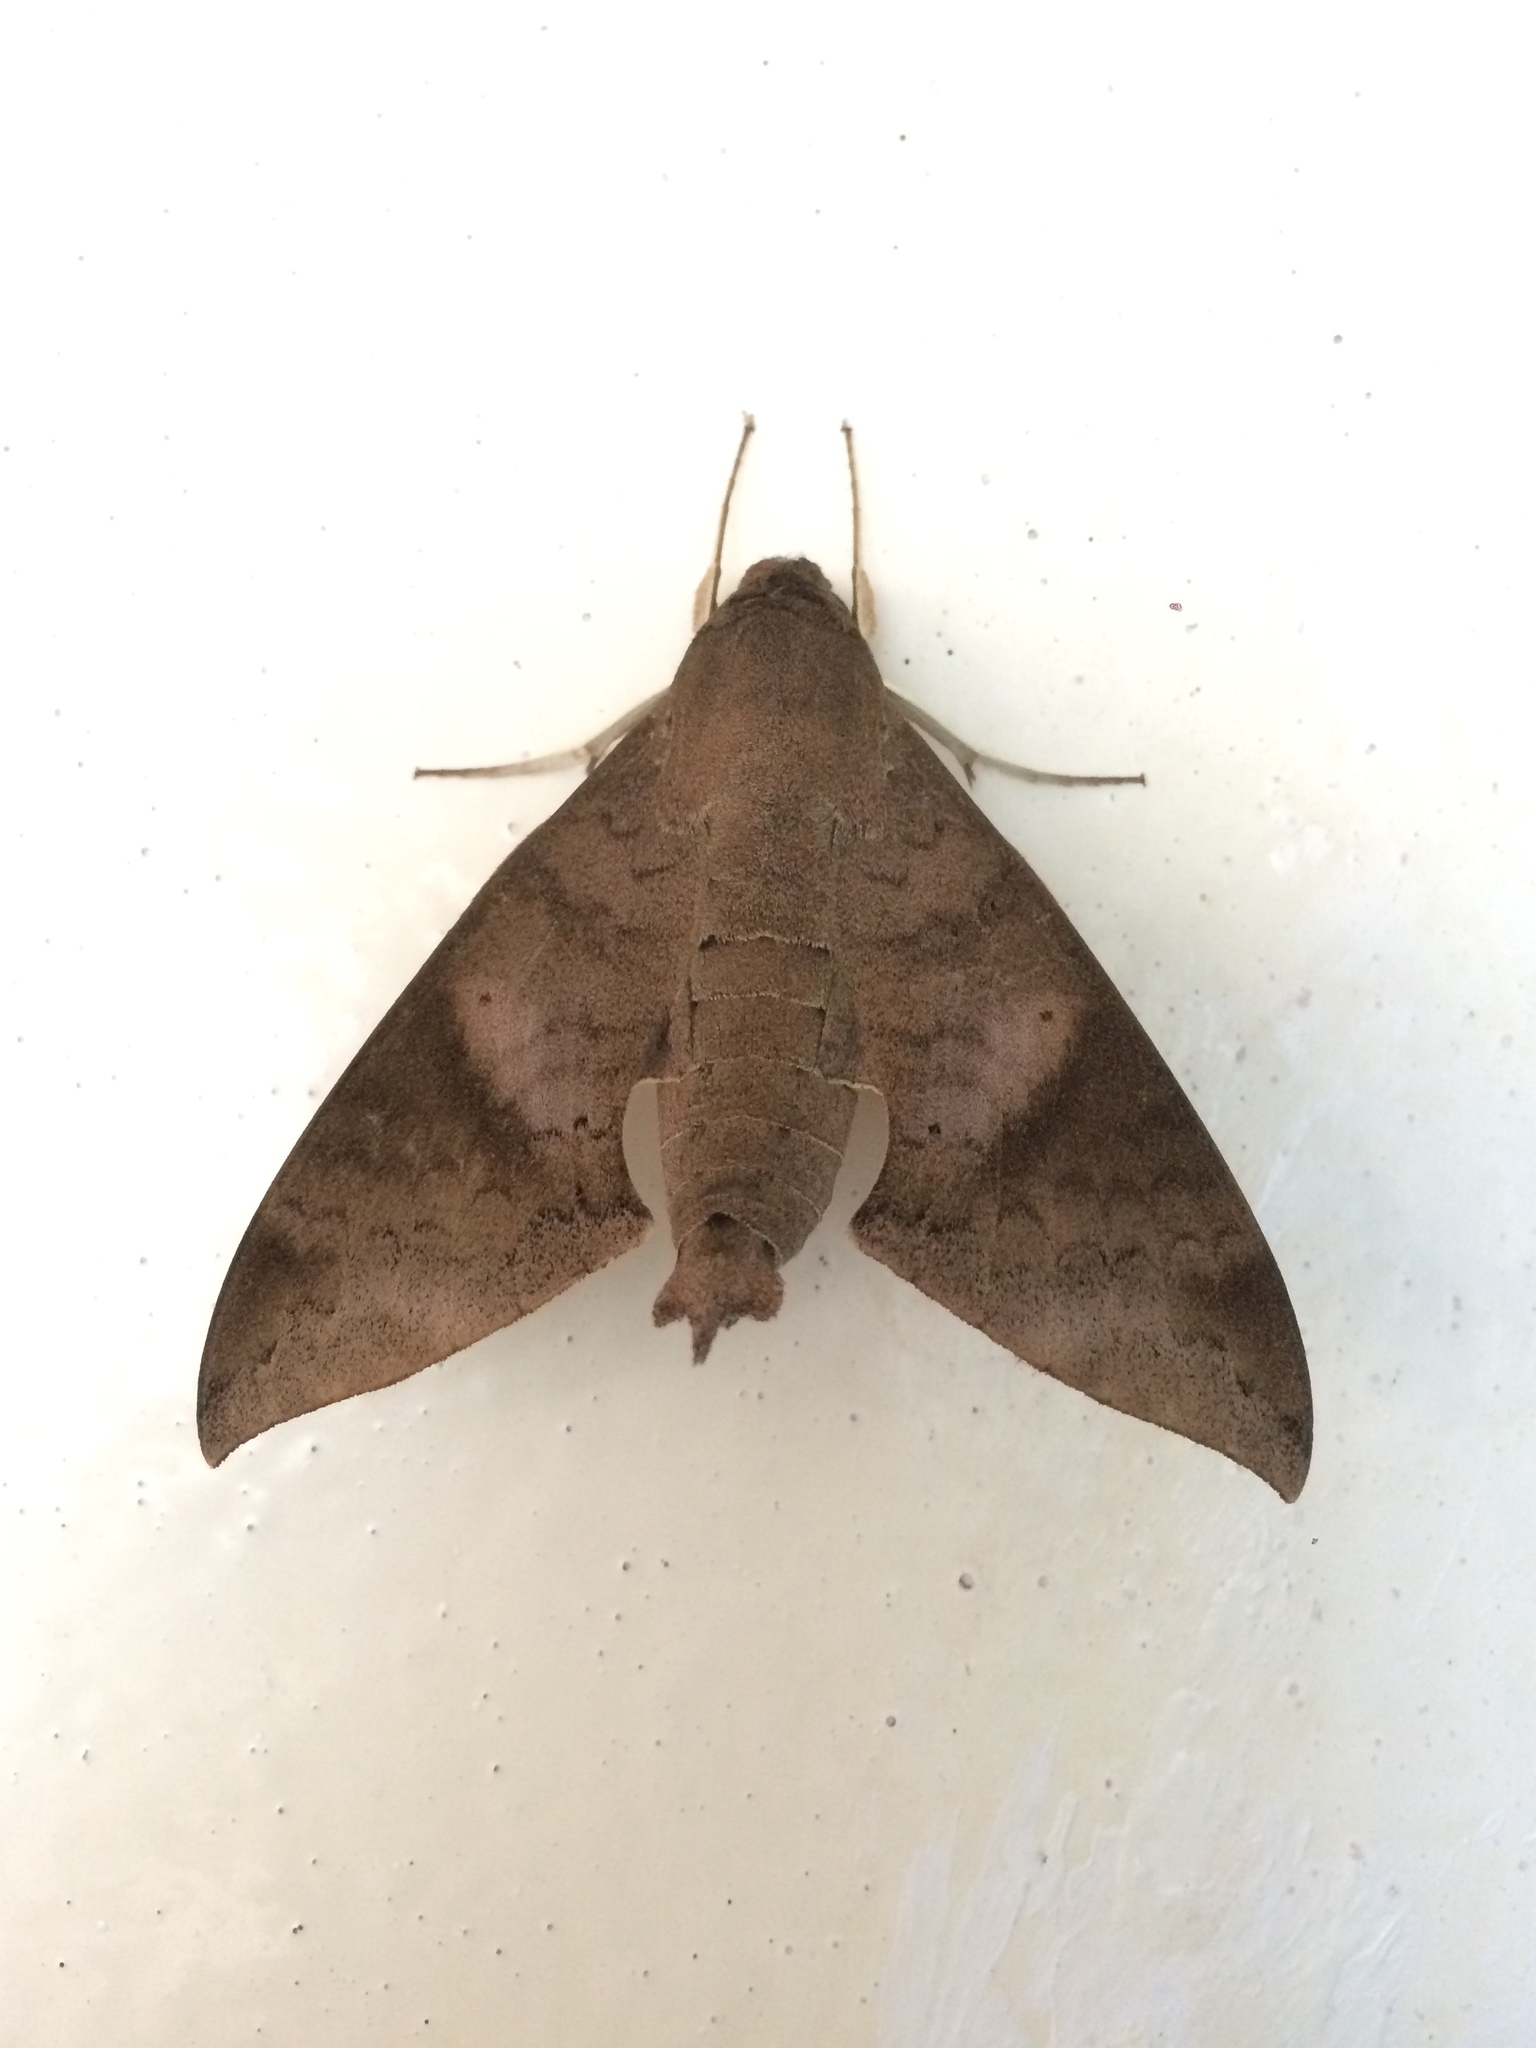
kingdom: Animalia
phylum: Arthropoda
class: Insecta
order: Lepidoptera
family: Sphingidae
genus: Pachylioides
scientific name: Pachylioides resumens
